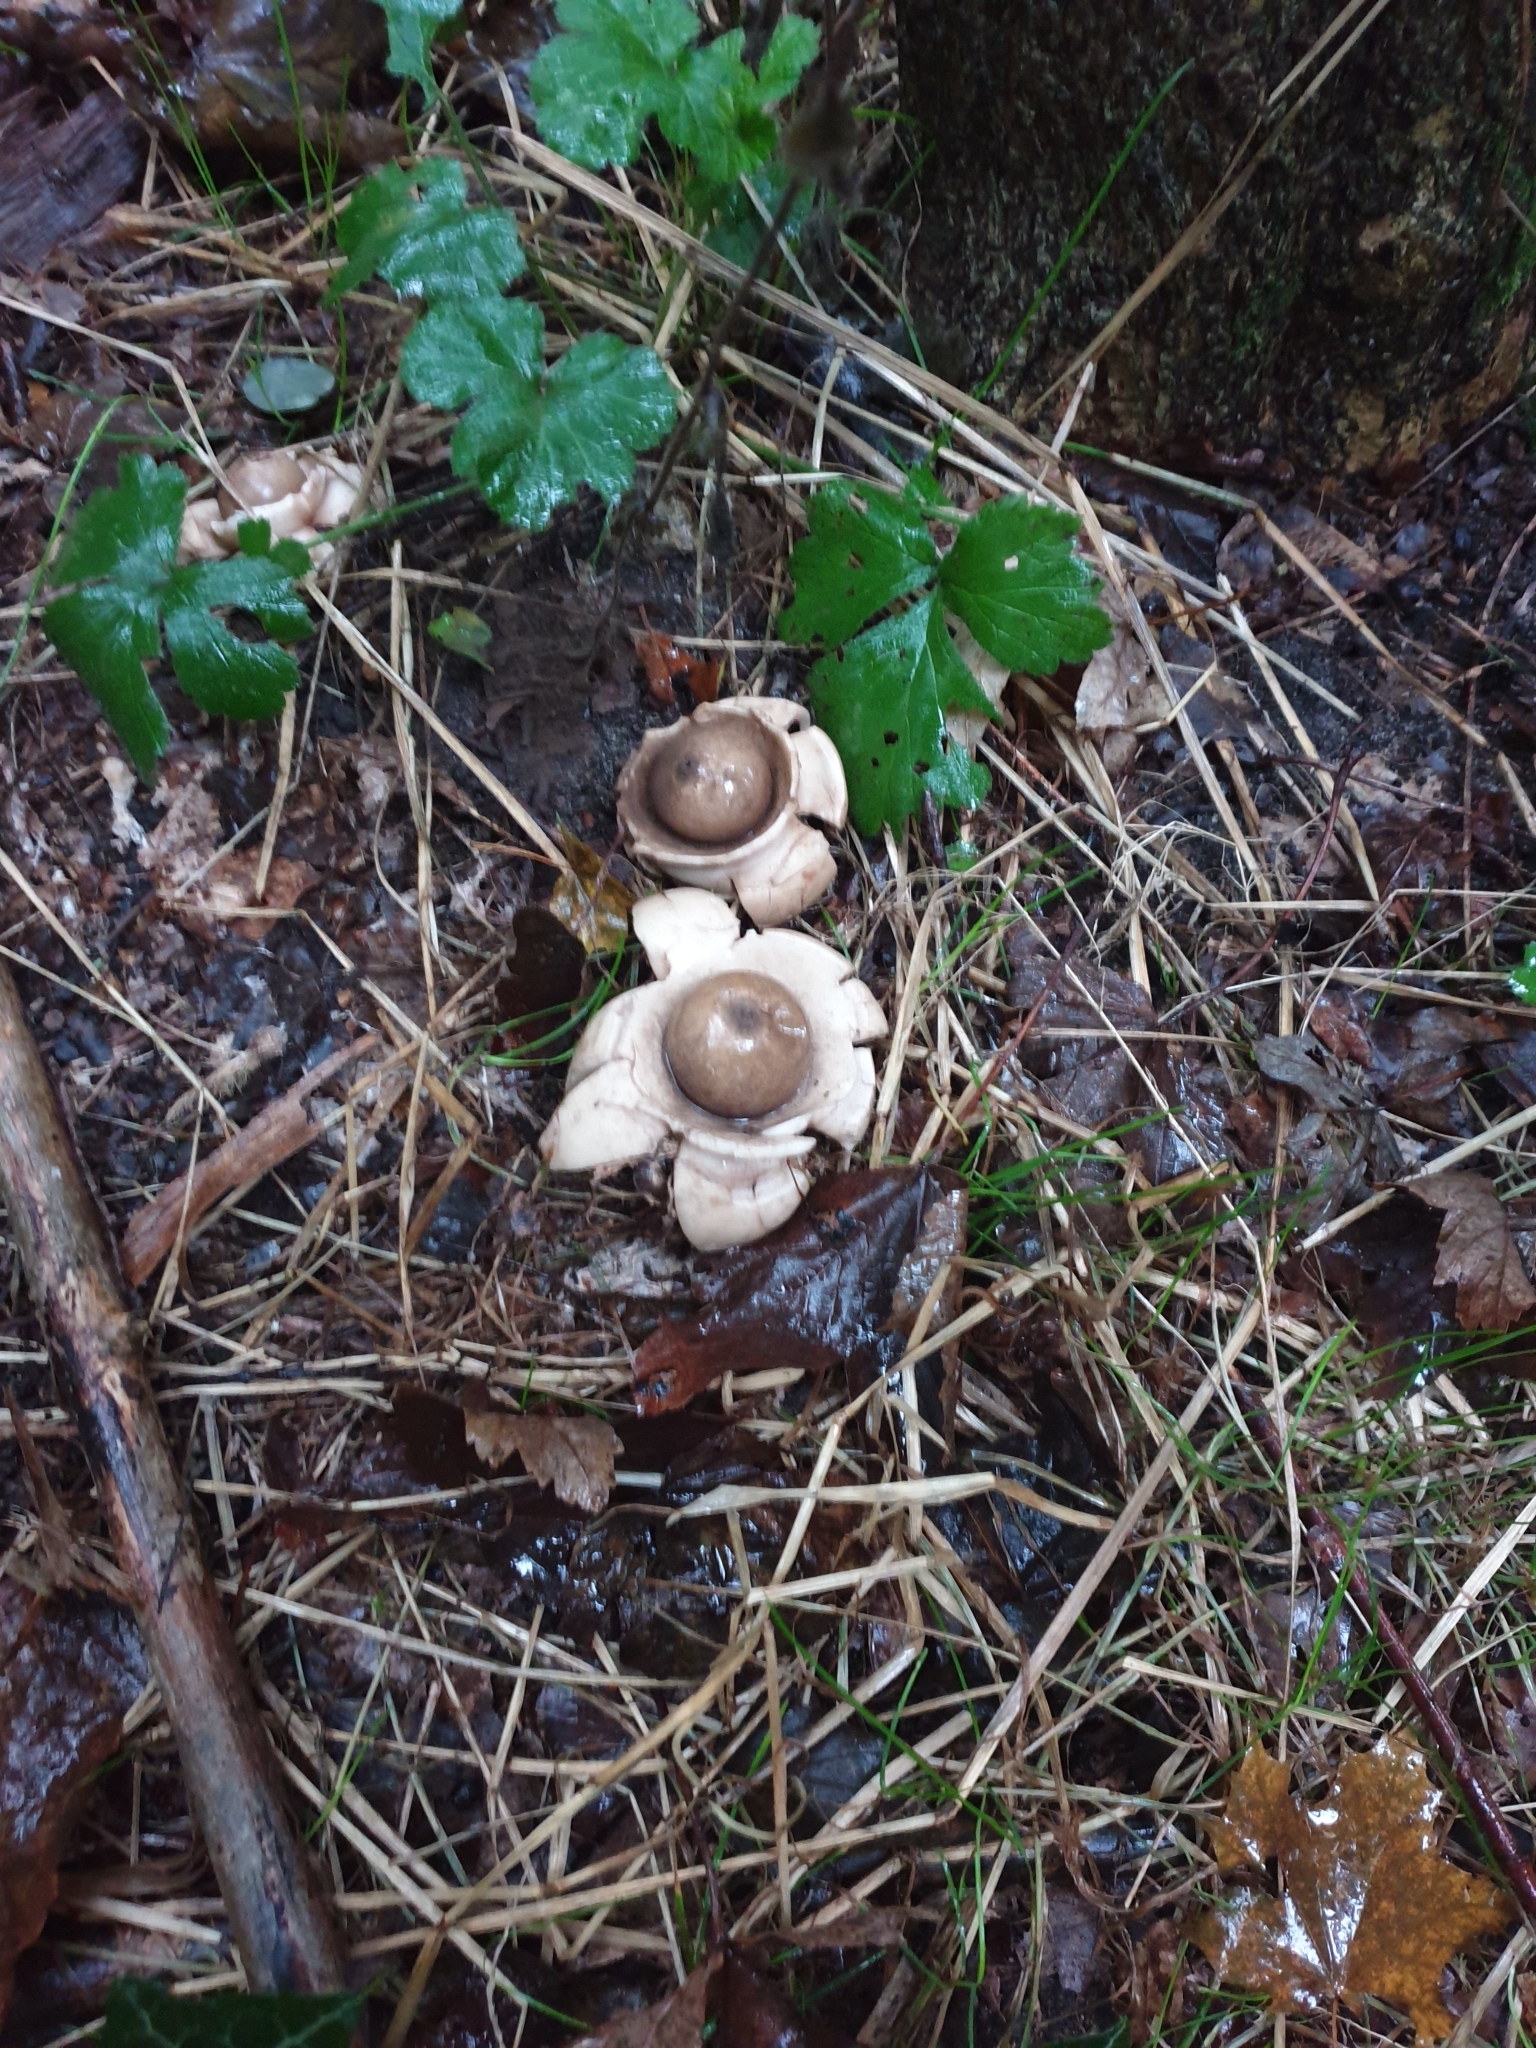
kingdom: Fungi
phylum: Basidiomycota
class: Agaricomycetes
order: Geastrales
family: Geastraceae
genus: Geastrum
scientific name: Geastrum triplex
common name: Collared earthstar
